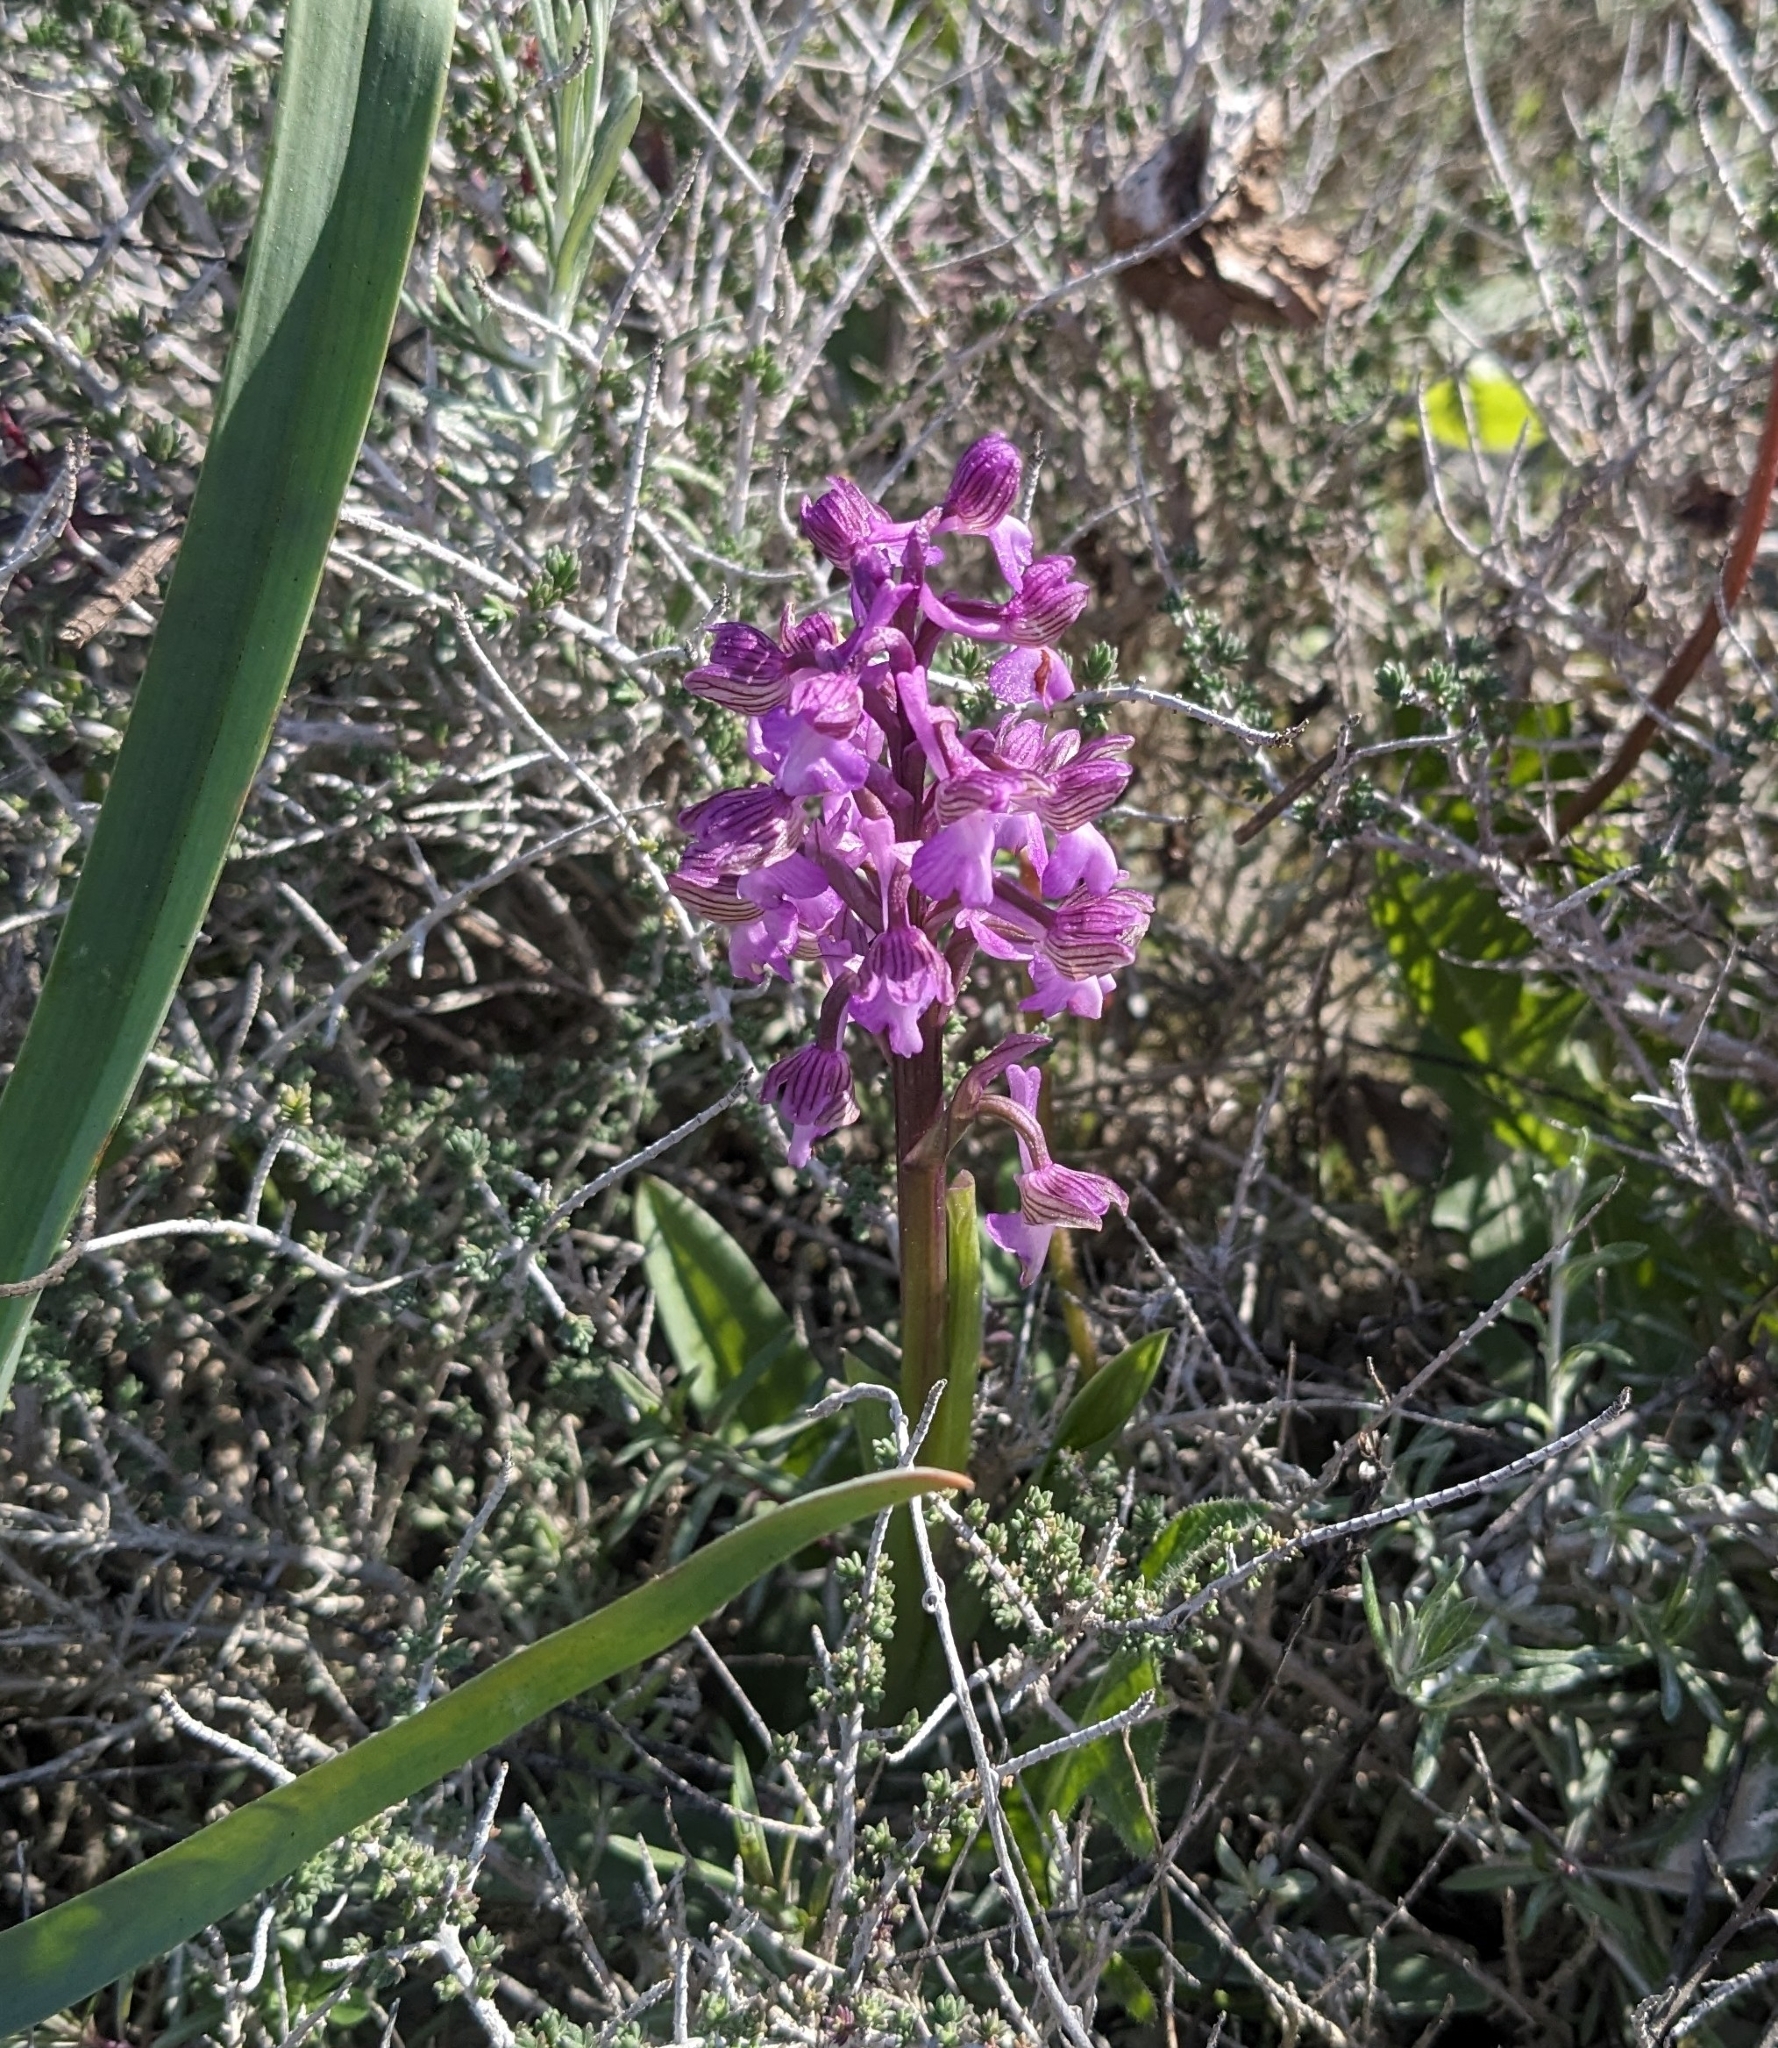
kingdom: Plantae
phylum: Tracheophyta
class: Liliopsida
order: Asparagales
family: Orchidaceae
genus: Anacamptis
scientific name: Anacamptis morio
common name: Green-winged orchid
